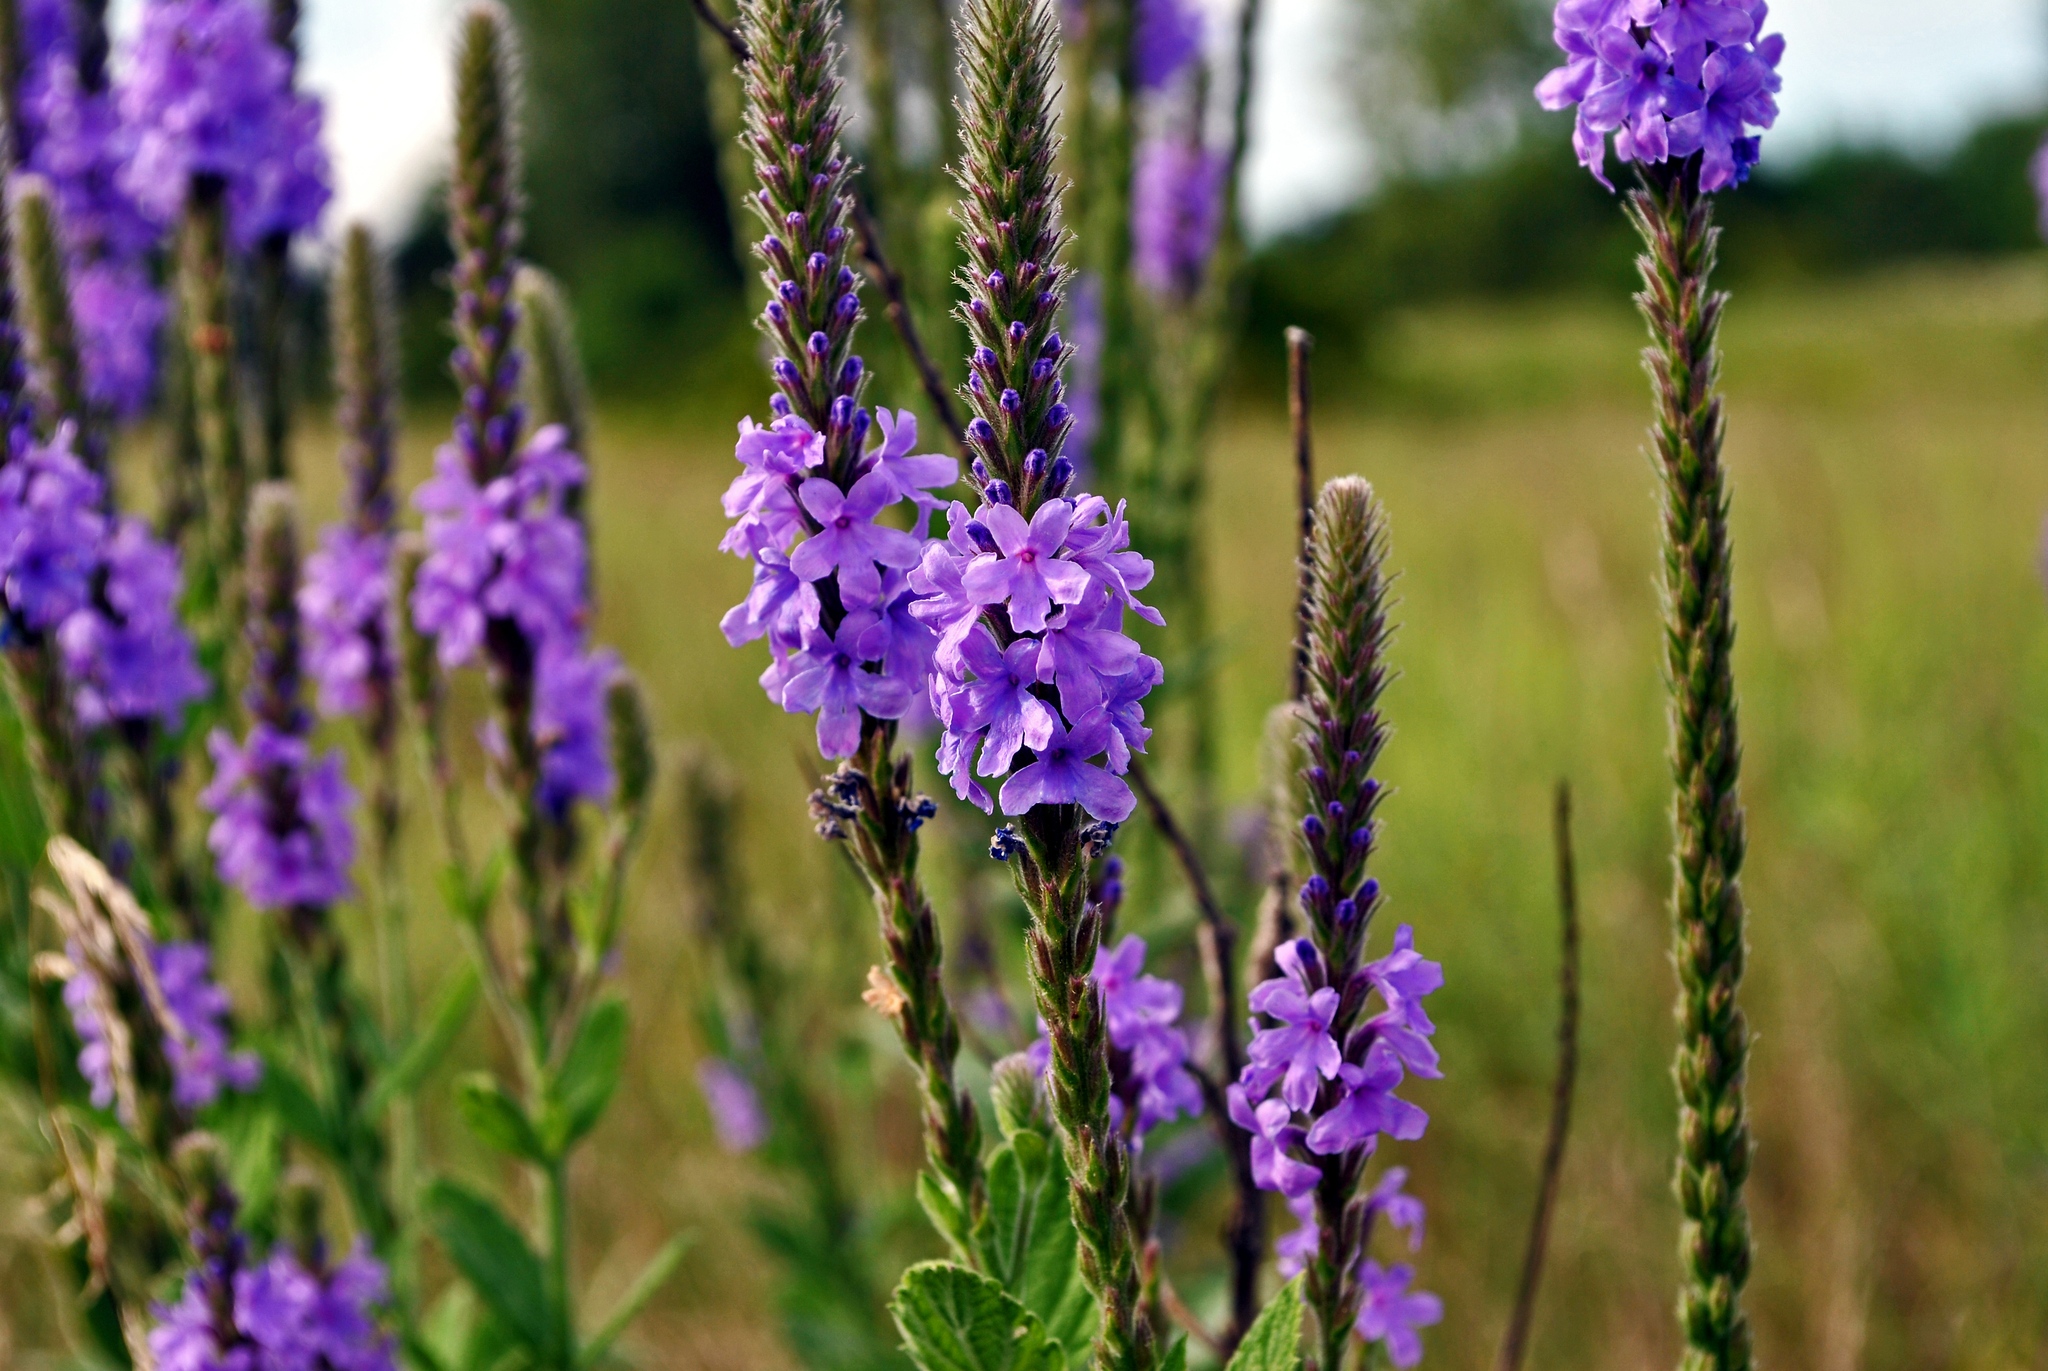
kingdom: Plantae
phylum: Tracheophyta
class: Magnoliopsida
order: Lamiales
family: Verbenaceae
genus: Verbena
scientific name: Verbena stricta
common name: Hoary vervain
